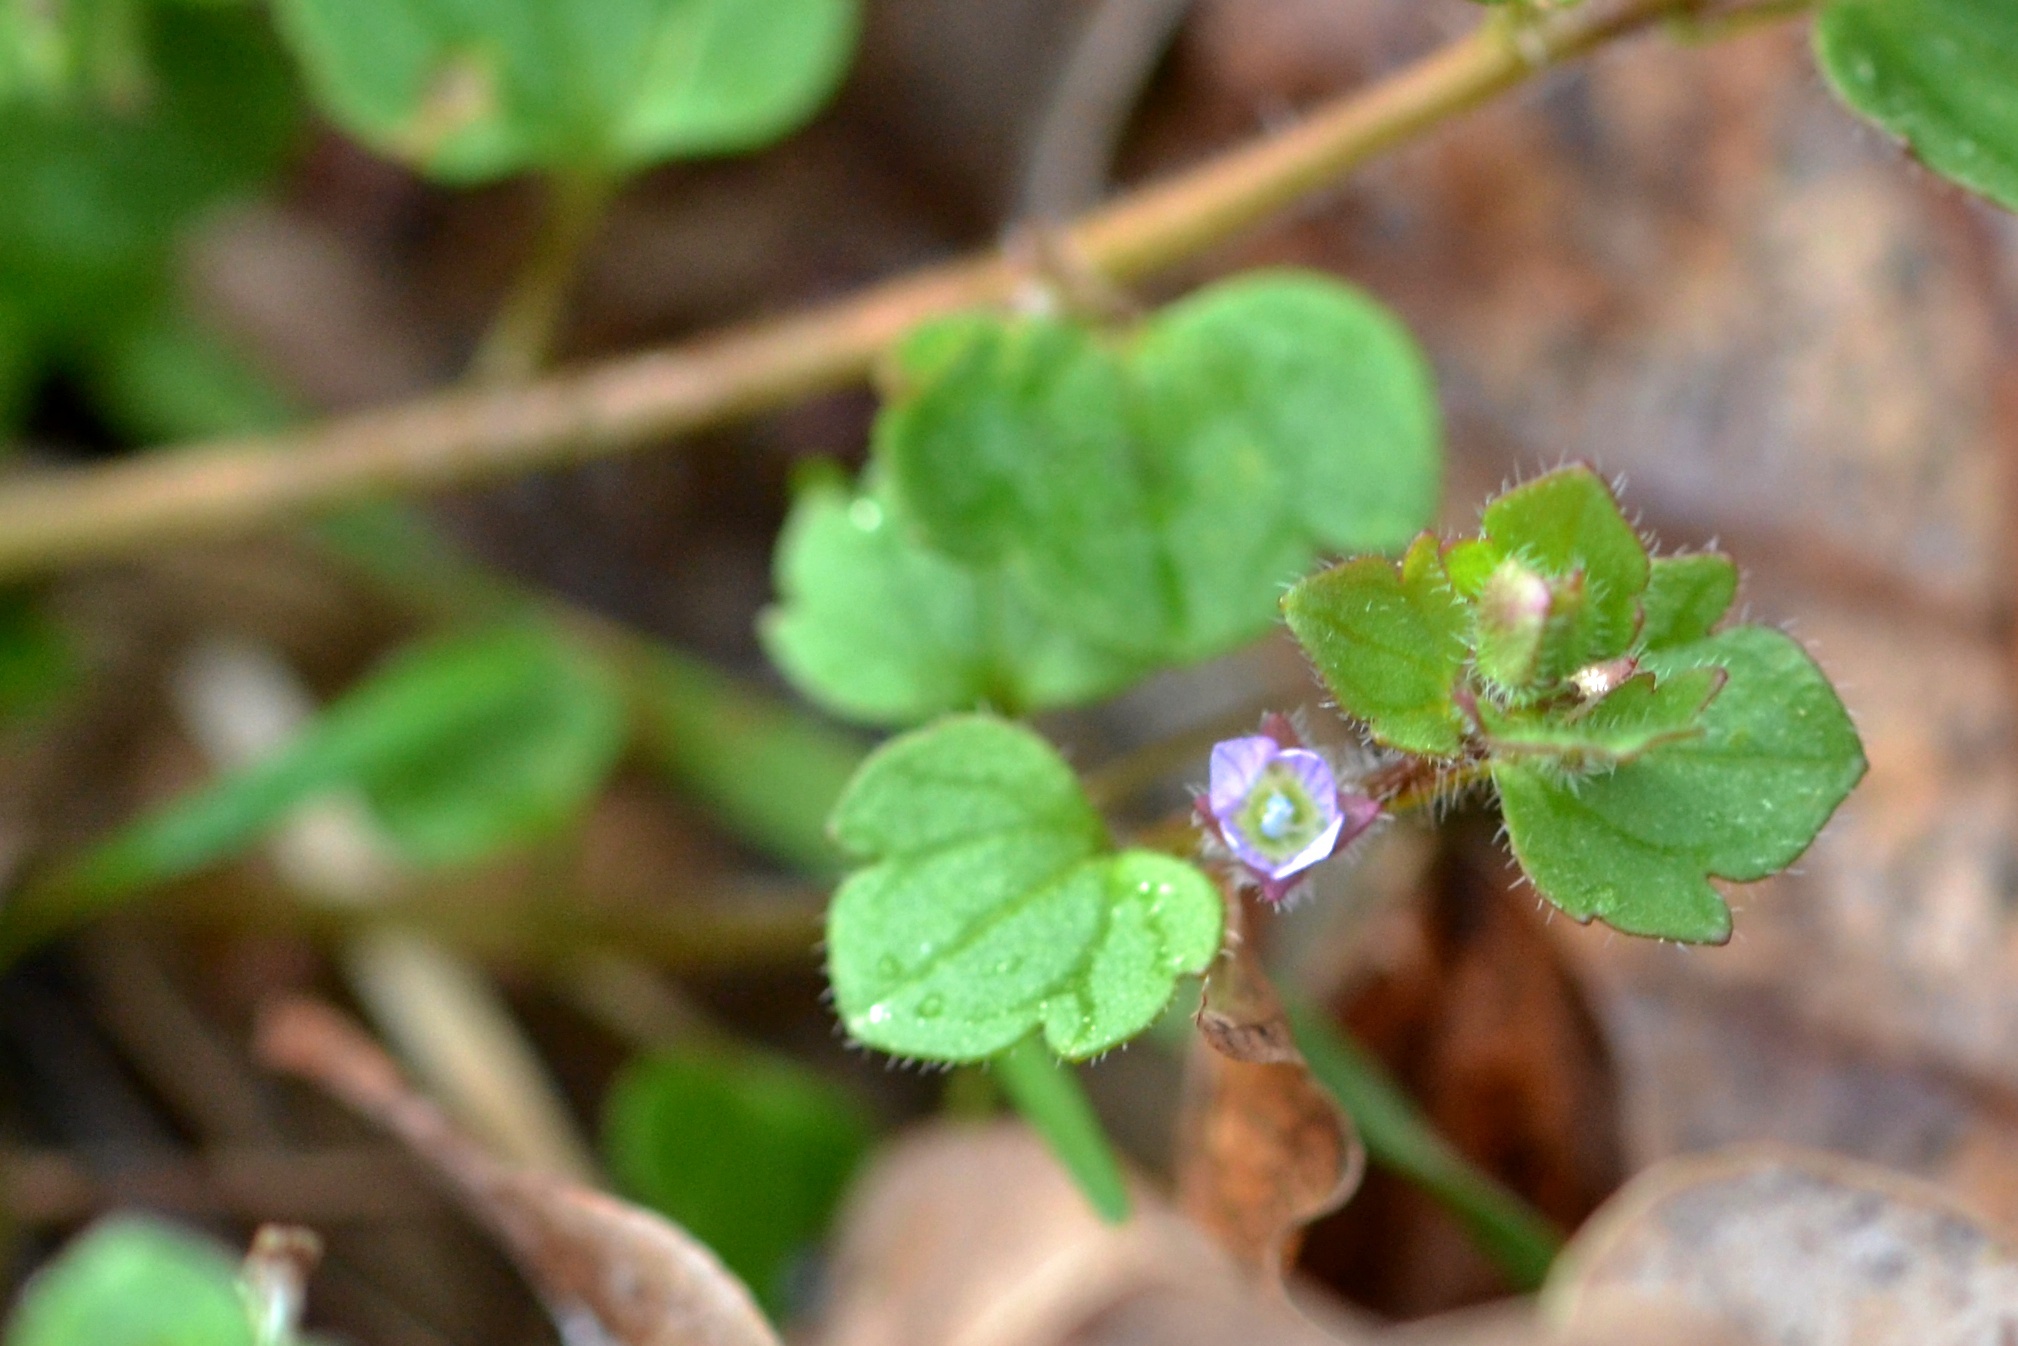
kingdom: Plantae
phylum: Tracheophyta
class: Magnoliopsida
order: Lamiales
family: Plantaginaceae
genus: Veronica
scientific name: Veronica sublobata
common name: False ivy-leaved speedwell
